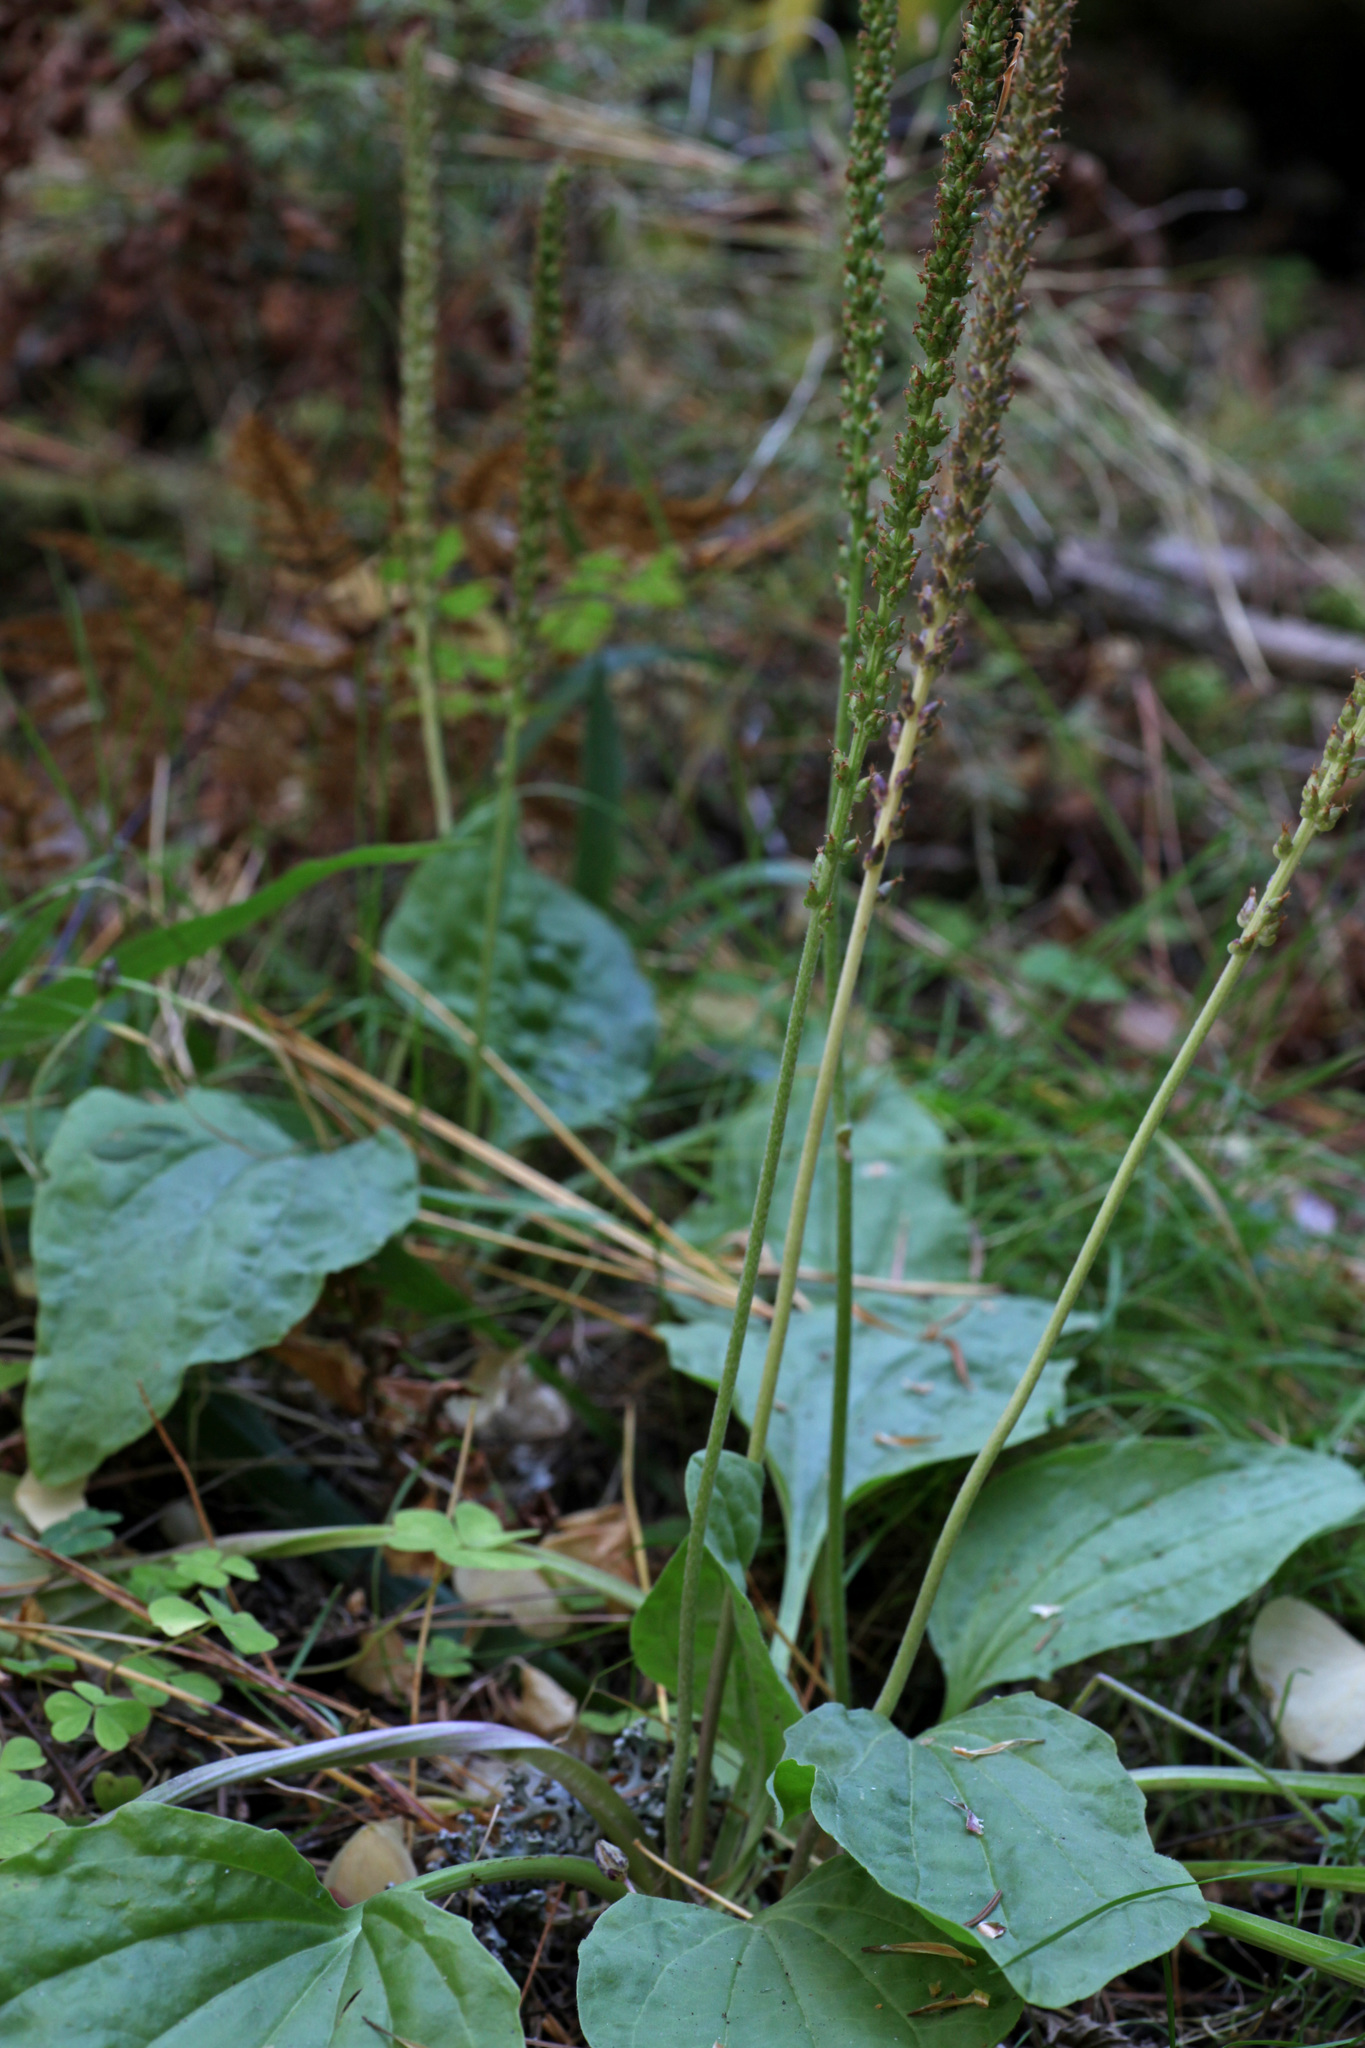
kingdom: Plantae
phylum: Tracheophyta
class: Magnoliopsida
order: Lamiales
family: Plantaginaceae
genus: Plantago
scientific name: Plantago major
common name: Common plantain
